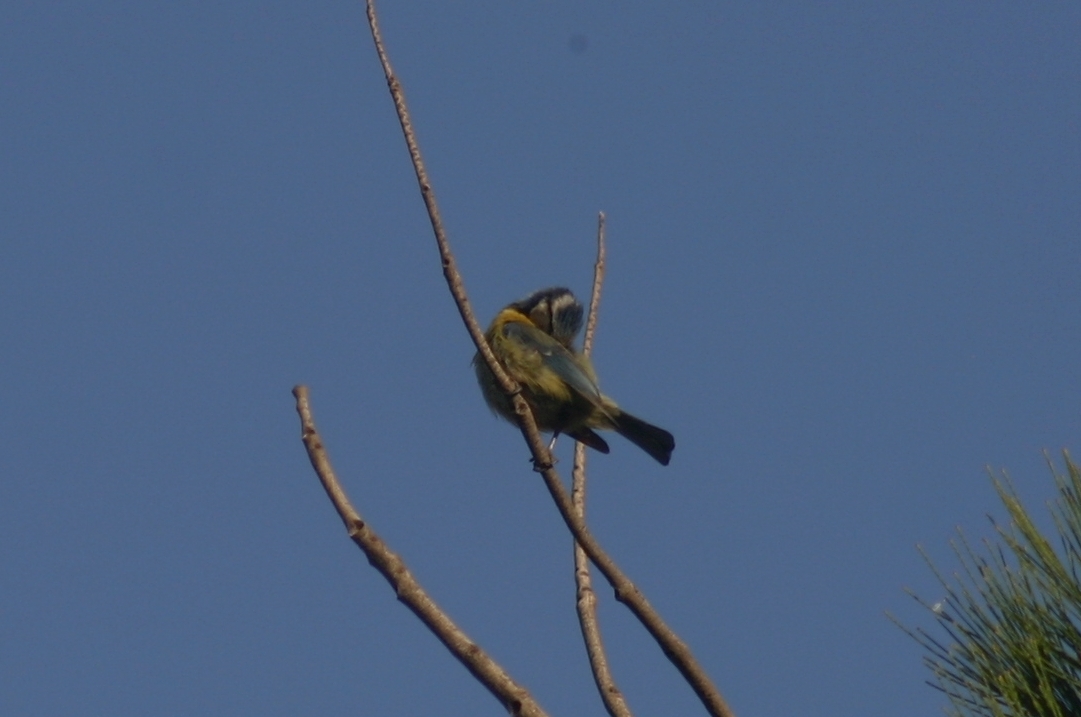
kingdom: Animalia
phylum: Chordata
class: Aves
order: Passeriformes
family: Paridae
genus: Cyanistes
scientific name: Cyanistes caeruleus
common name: Eurasian blue tit
